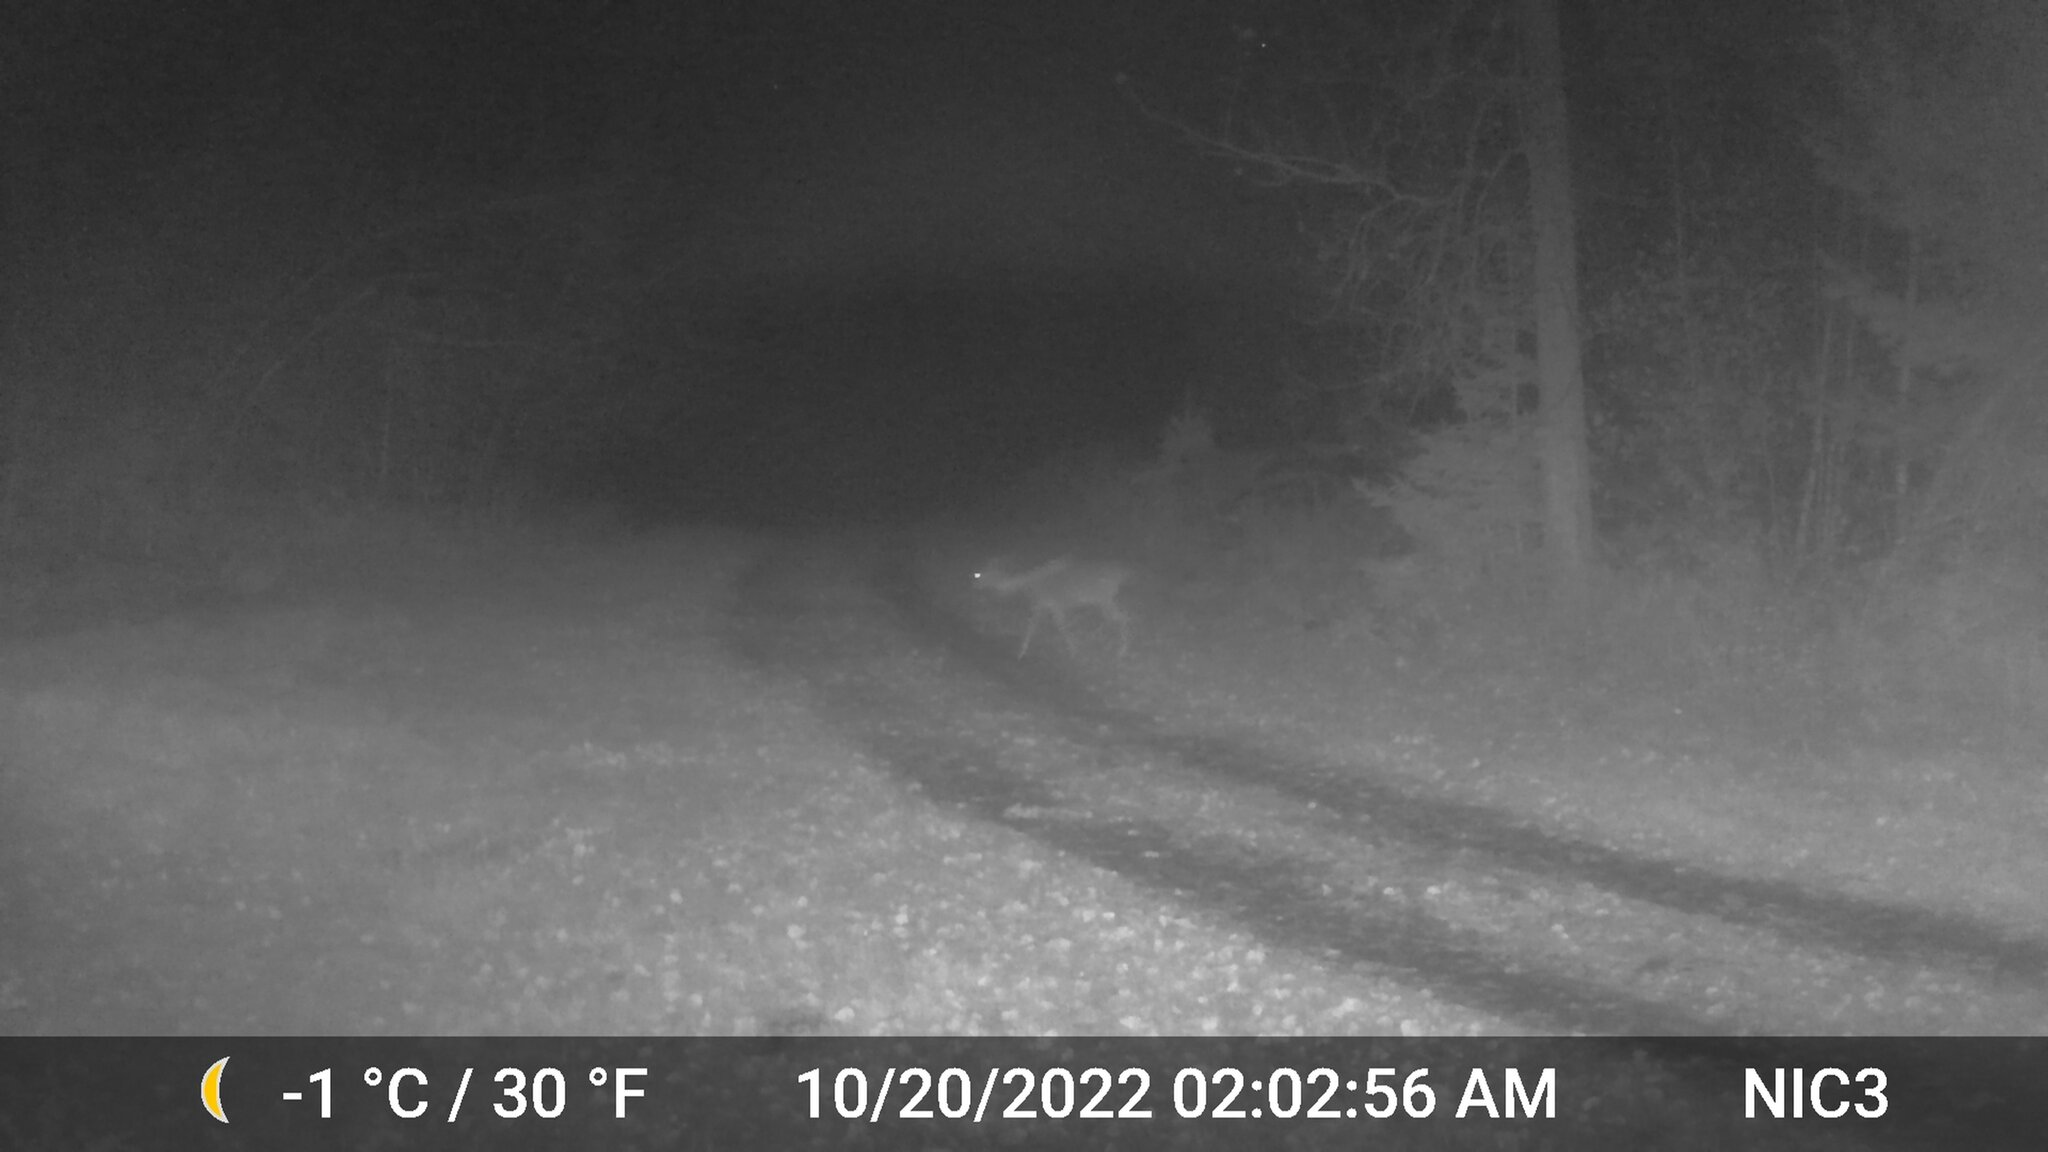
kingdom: Animalia
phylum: Chordata
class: Mammalia
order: Artiodactyla
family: Cervidae
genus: Odocoileus
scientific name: Odocoileus virginianus
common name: White-tailed deer
